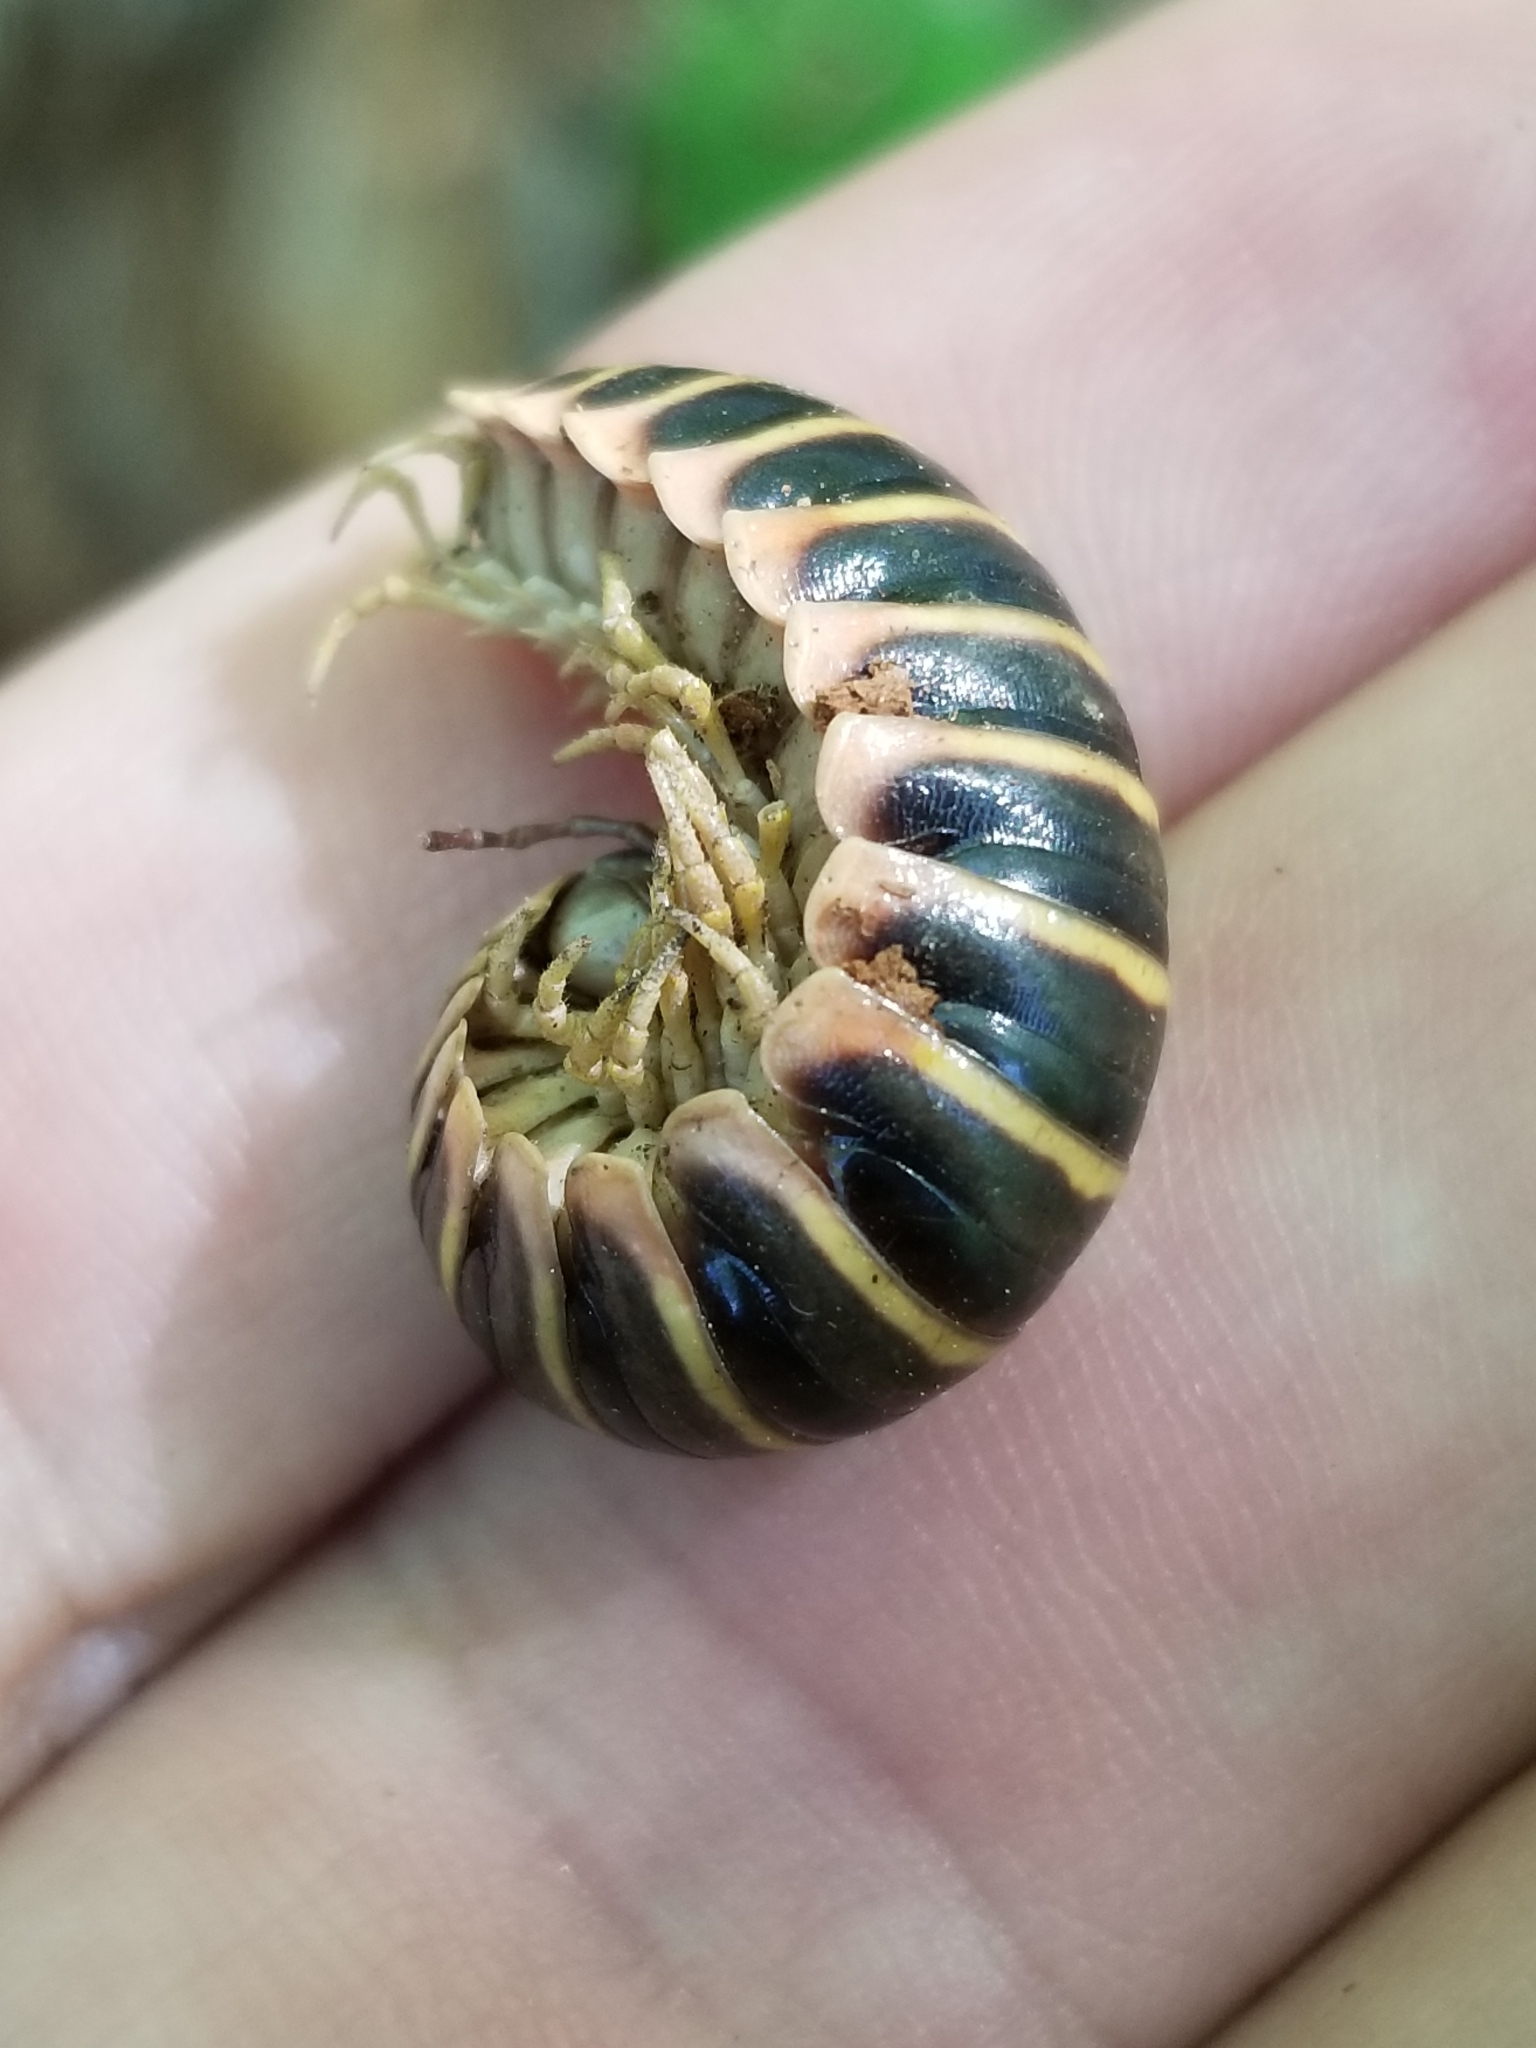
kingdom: Animalia
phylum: Arthropoda
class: Diplopoda
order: Polydesmida
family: Xystodesmidae
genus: Apheloria
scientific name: Apheloria virginiensis
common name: Black-and-gold flat millipede
